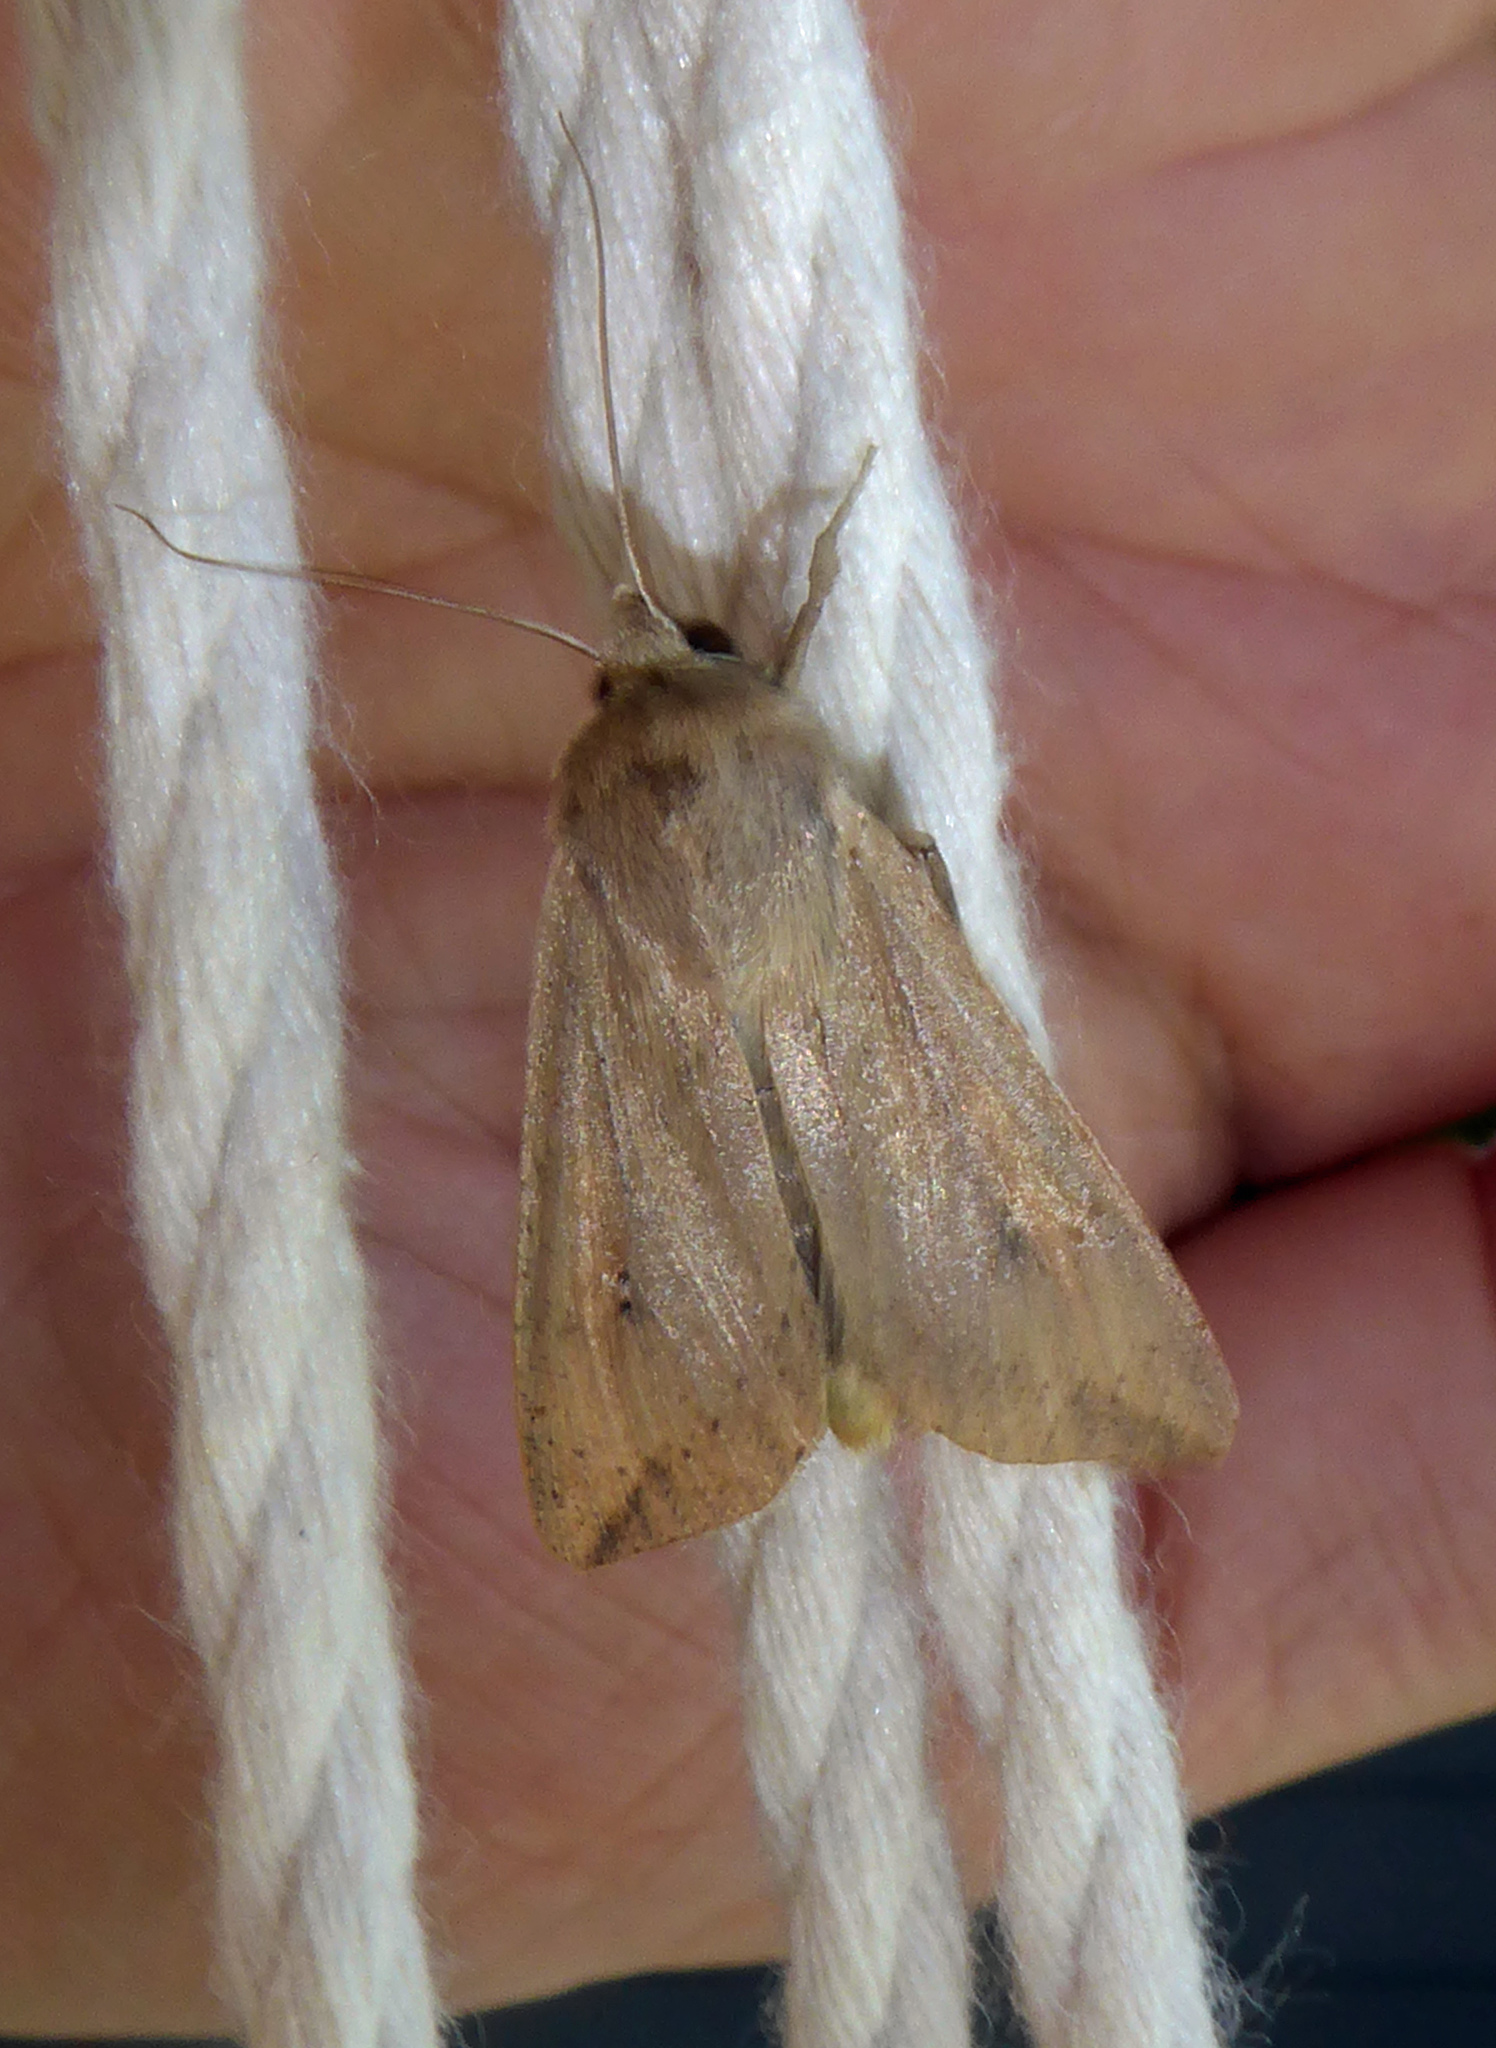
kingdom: Animalia
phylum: Arthropoda
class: Insecta
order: Lepidoptera
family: Noctuidae
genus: Mythimna
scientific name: Mythimna separata
